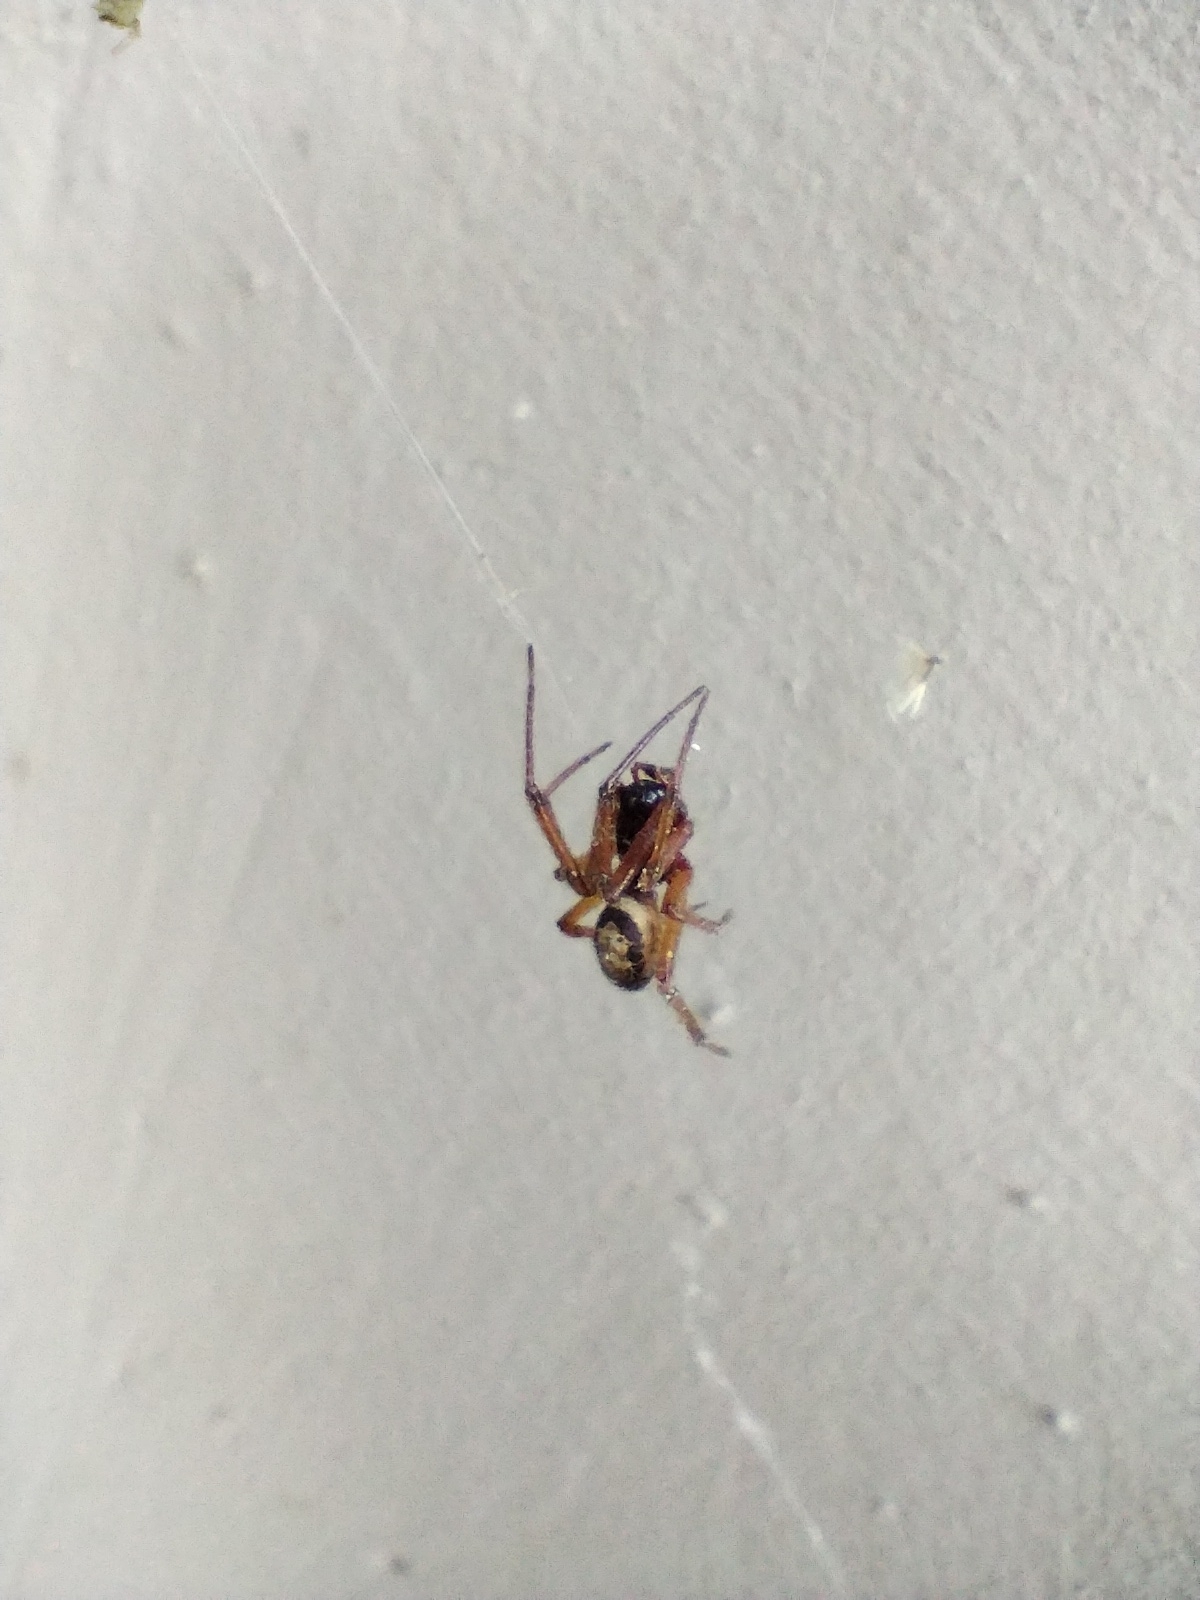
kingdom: Animalia
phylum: Arthropoda
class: Arachnida
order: Araneae
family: Theridiidae
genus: Steatoda
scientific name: Steatoda nobilis
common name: Cobweb weaver
